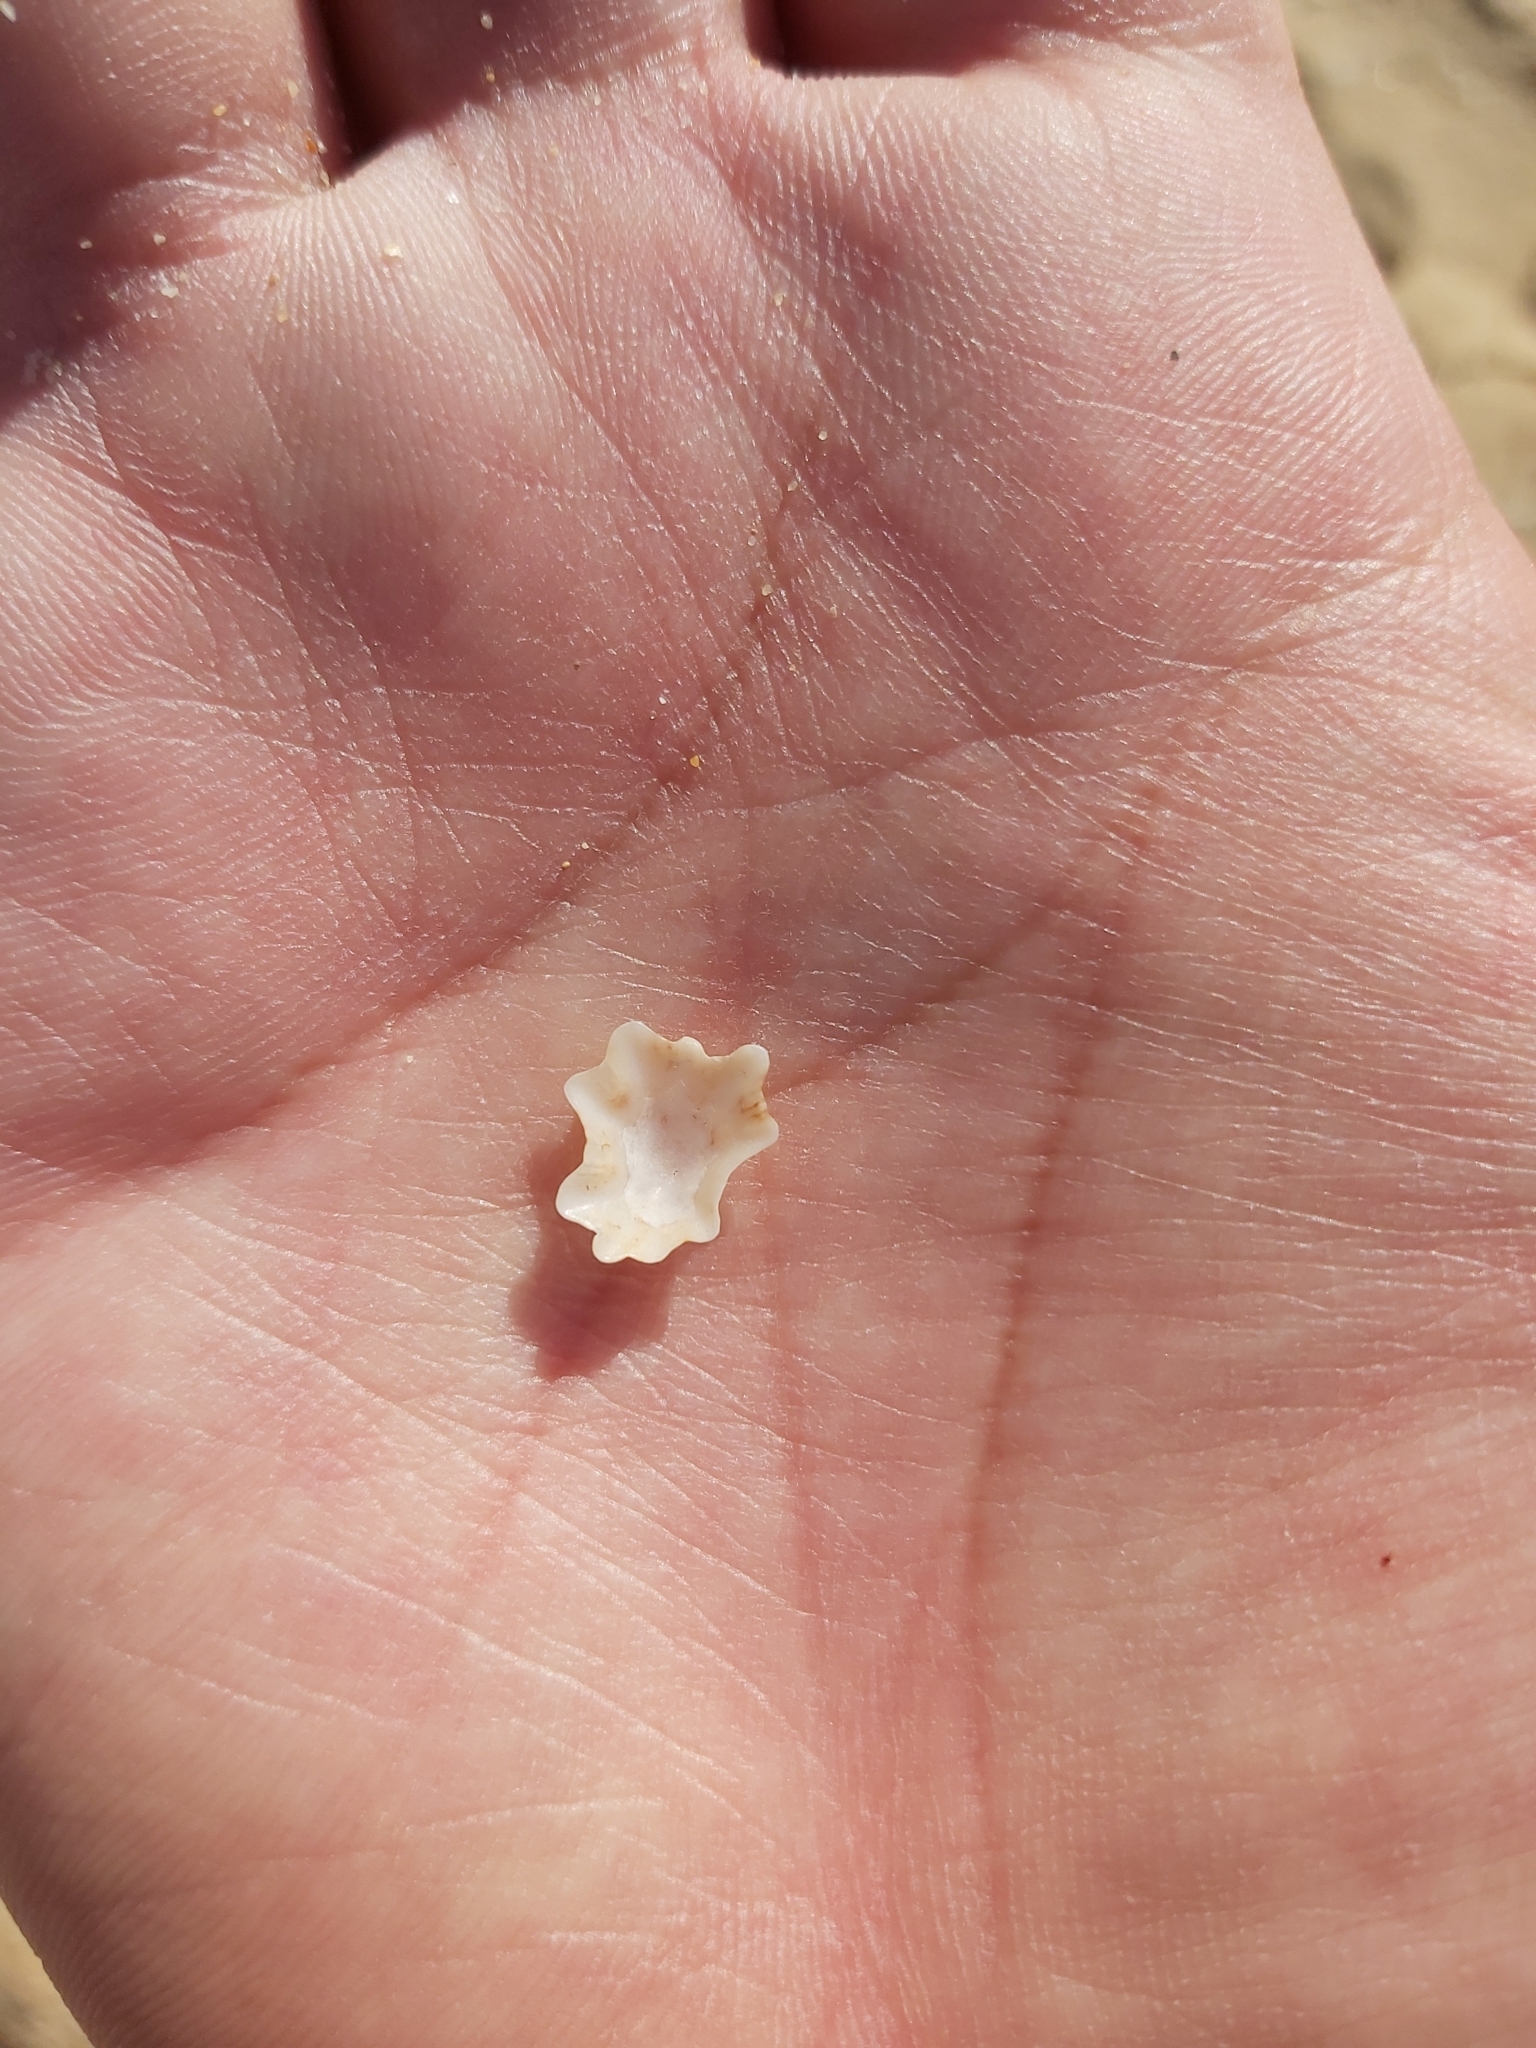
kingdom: Animalia
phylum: Mollusca
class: Gastropoda
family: Patellidae
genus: Scutellastra
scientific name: Scutellastra chapmani
